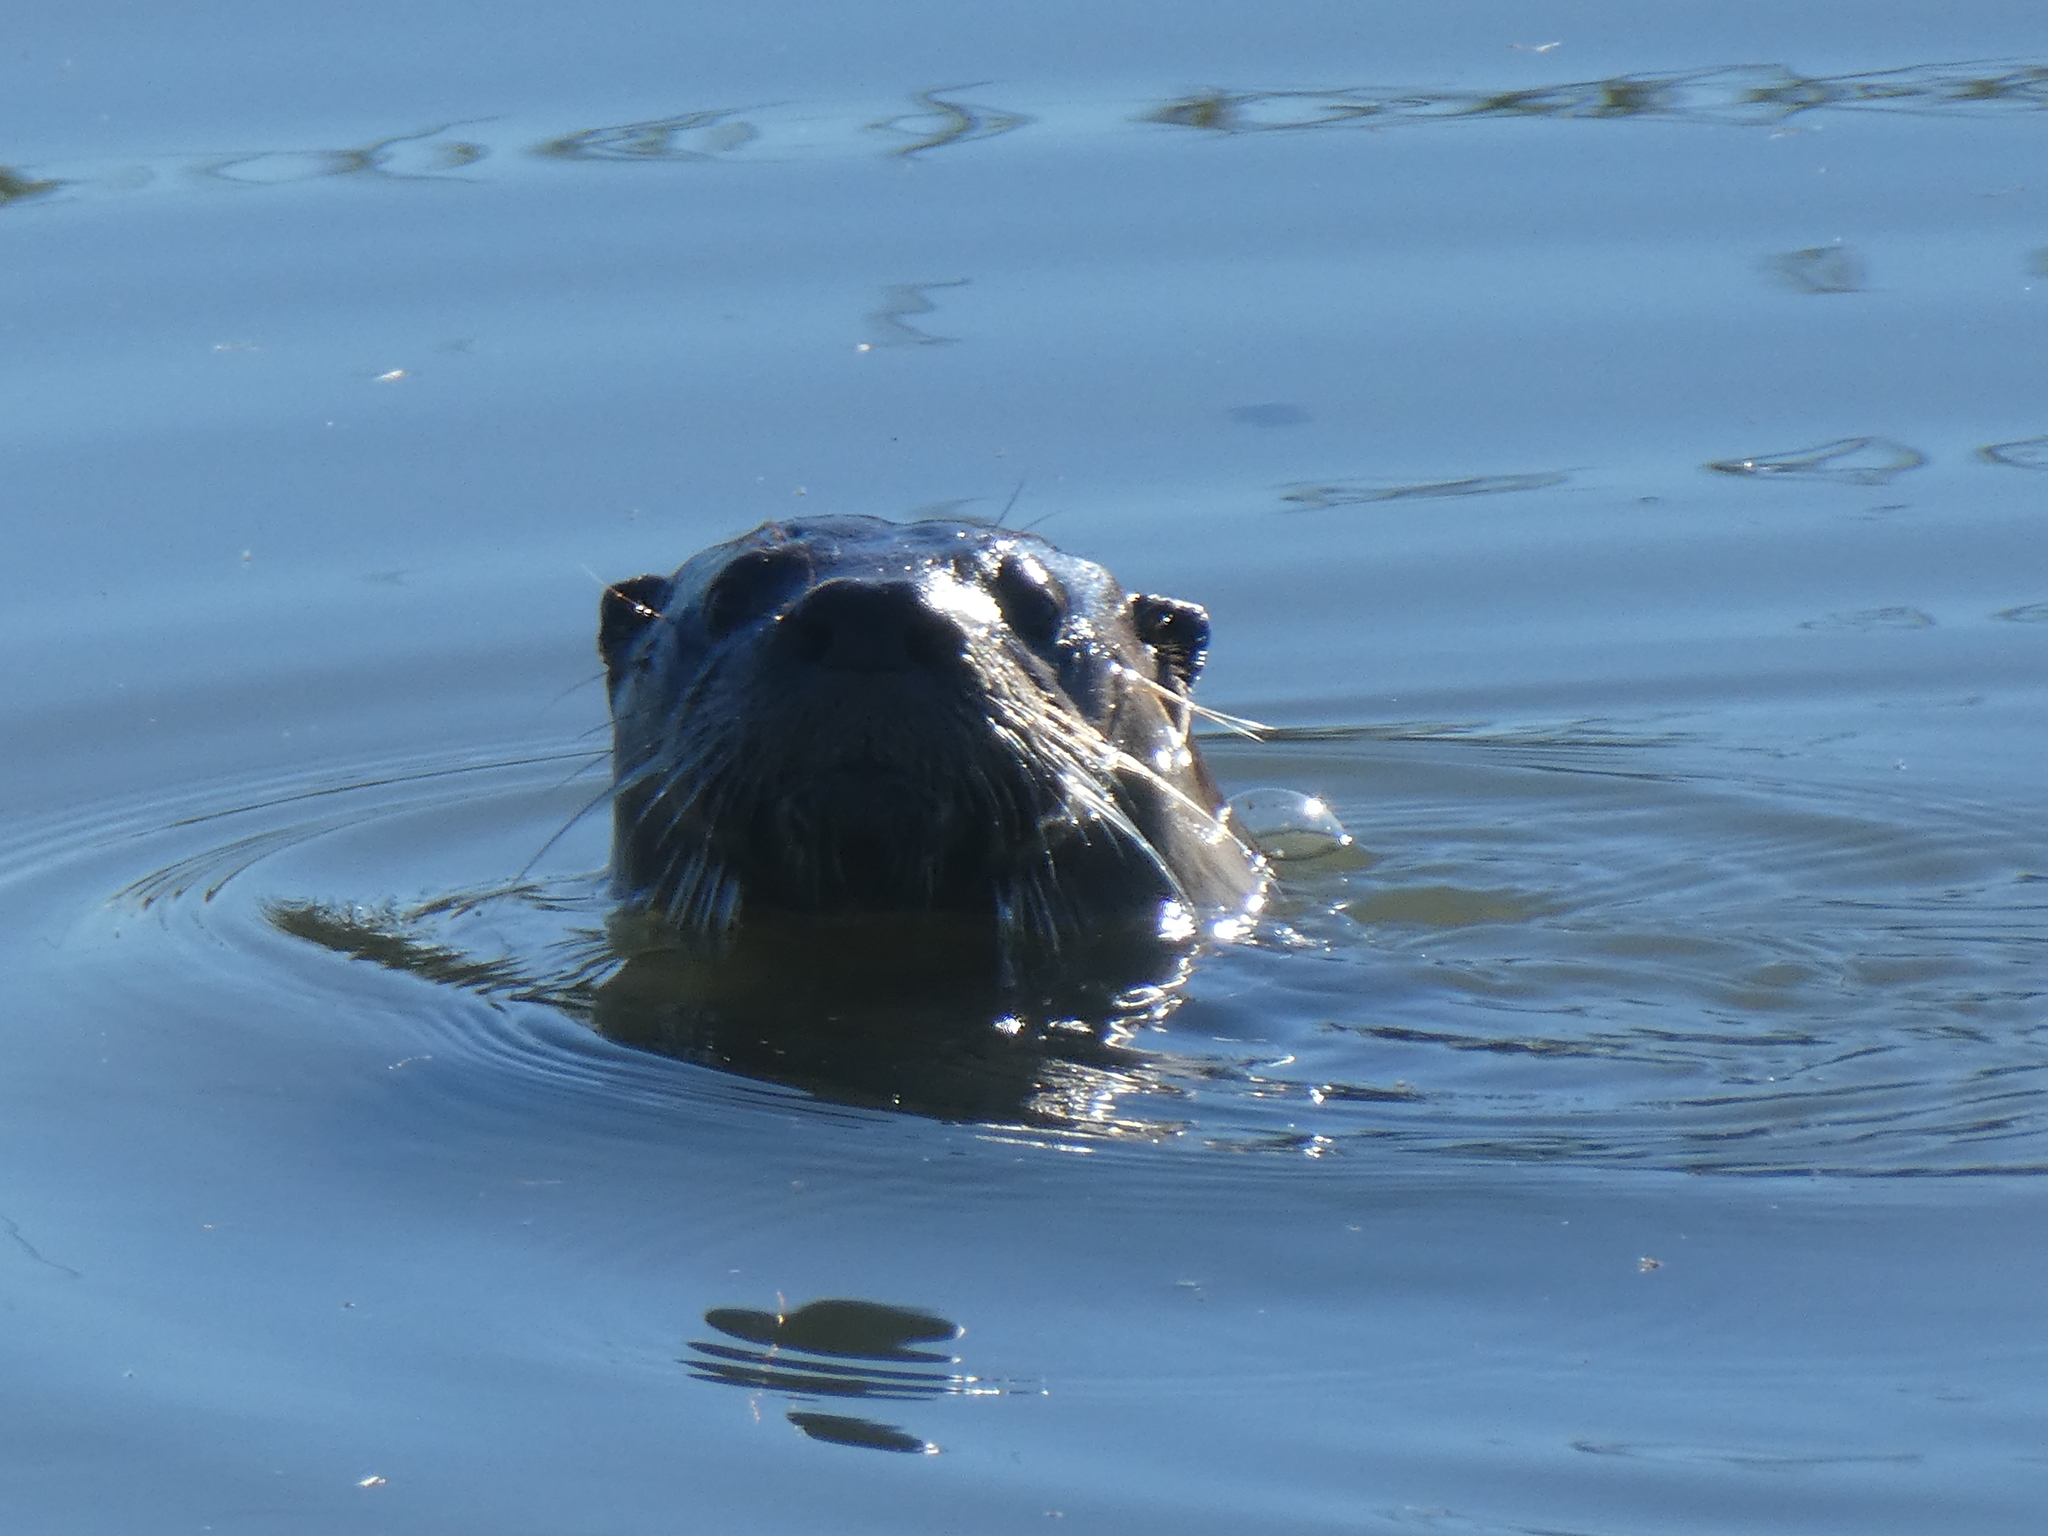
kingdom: Animalia
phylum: Chordata
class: Mammalia
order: Carnivora
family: Mustelidae
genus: Lontra
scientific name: Lontra canadensis
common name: North american river otter
